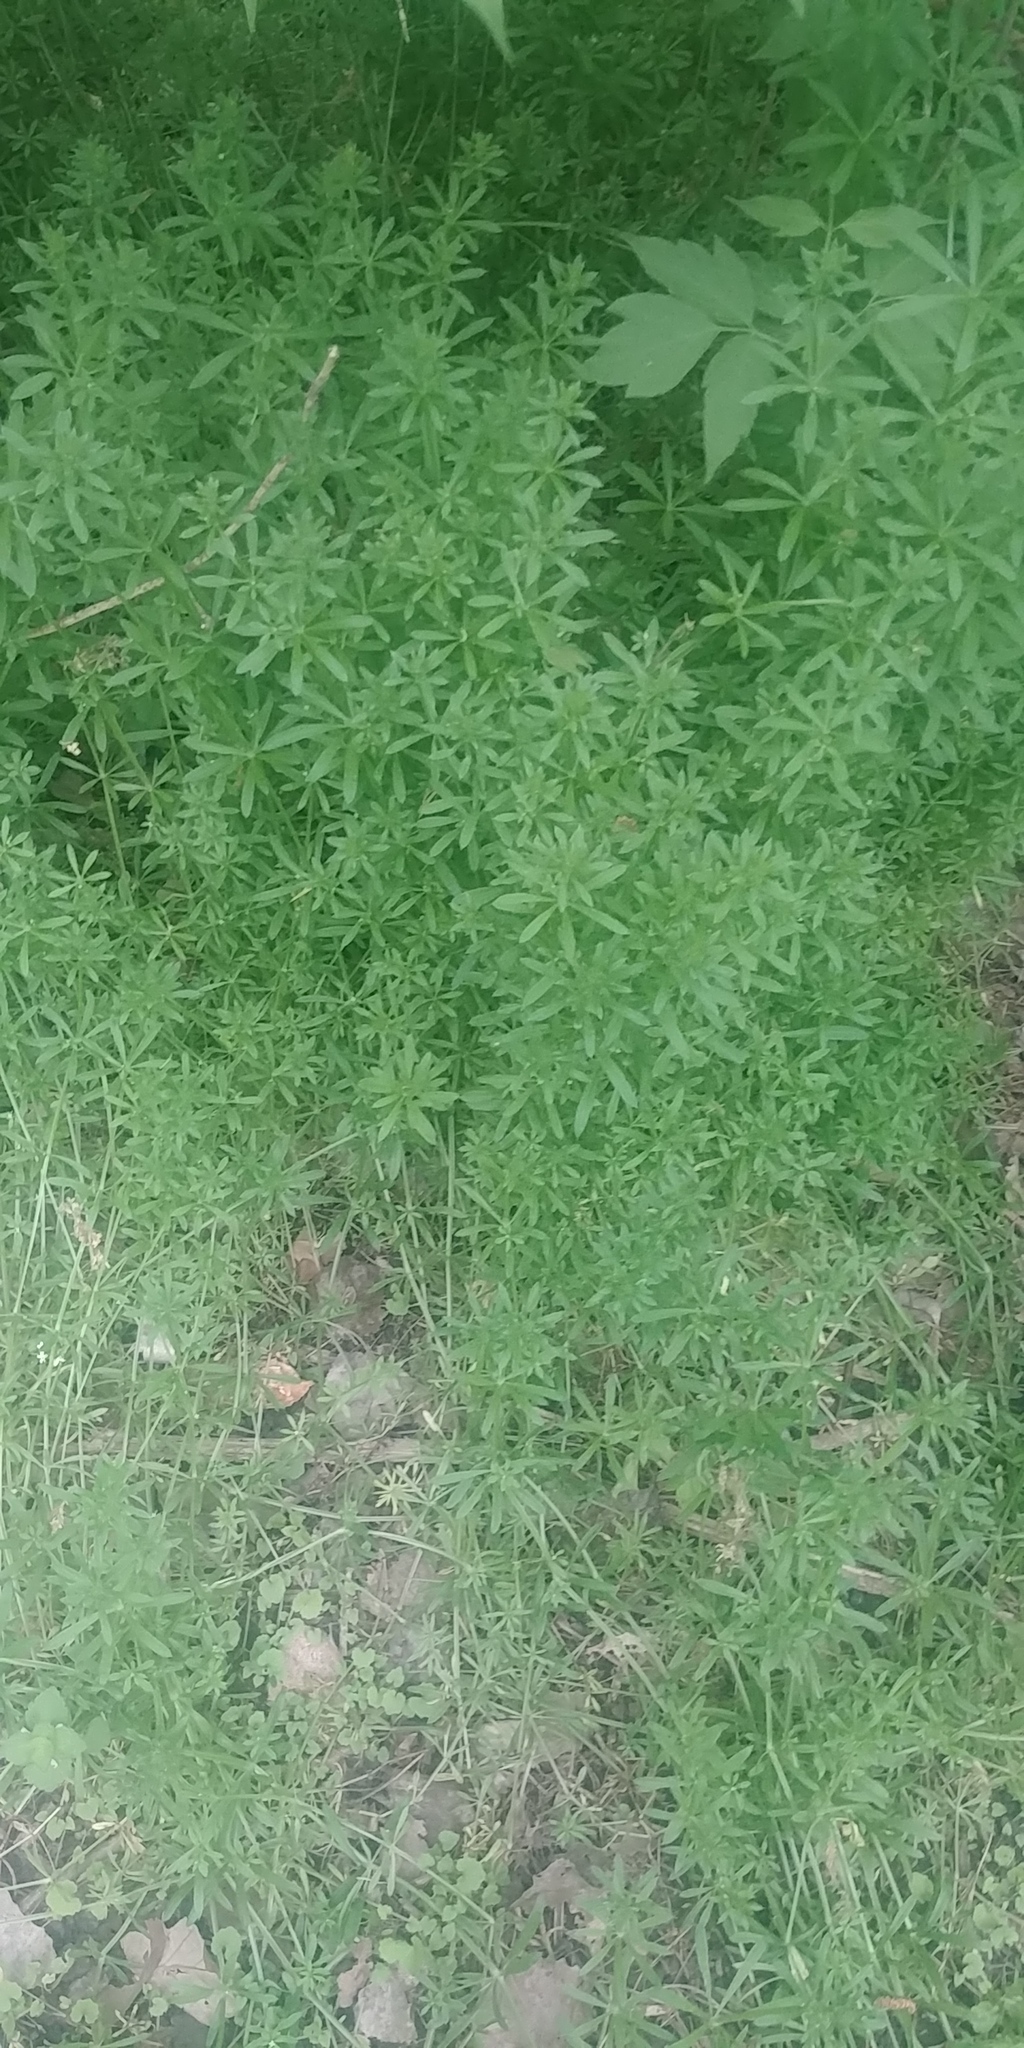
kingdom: Plantae
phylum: Tracheophyta
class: Magnoliopsida
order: Gentianales
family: Rubiaceae
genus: Galium
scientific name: Galium aparine
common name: Cleavers
